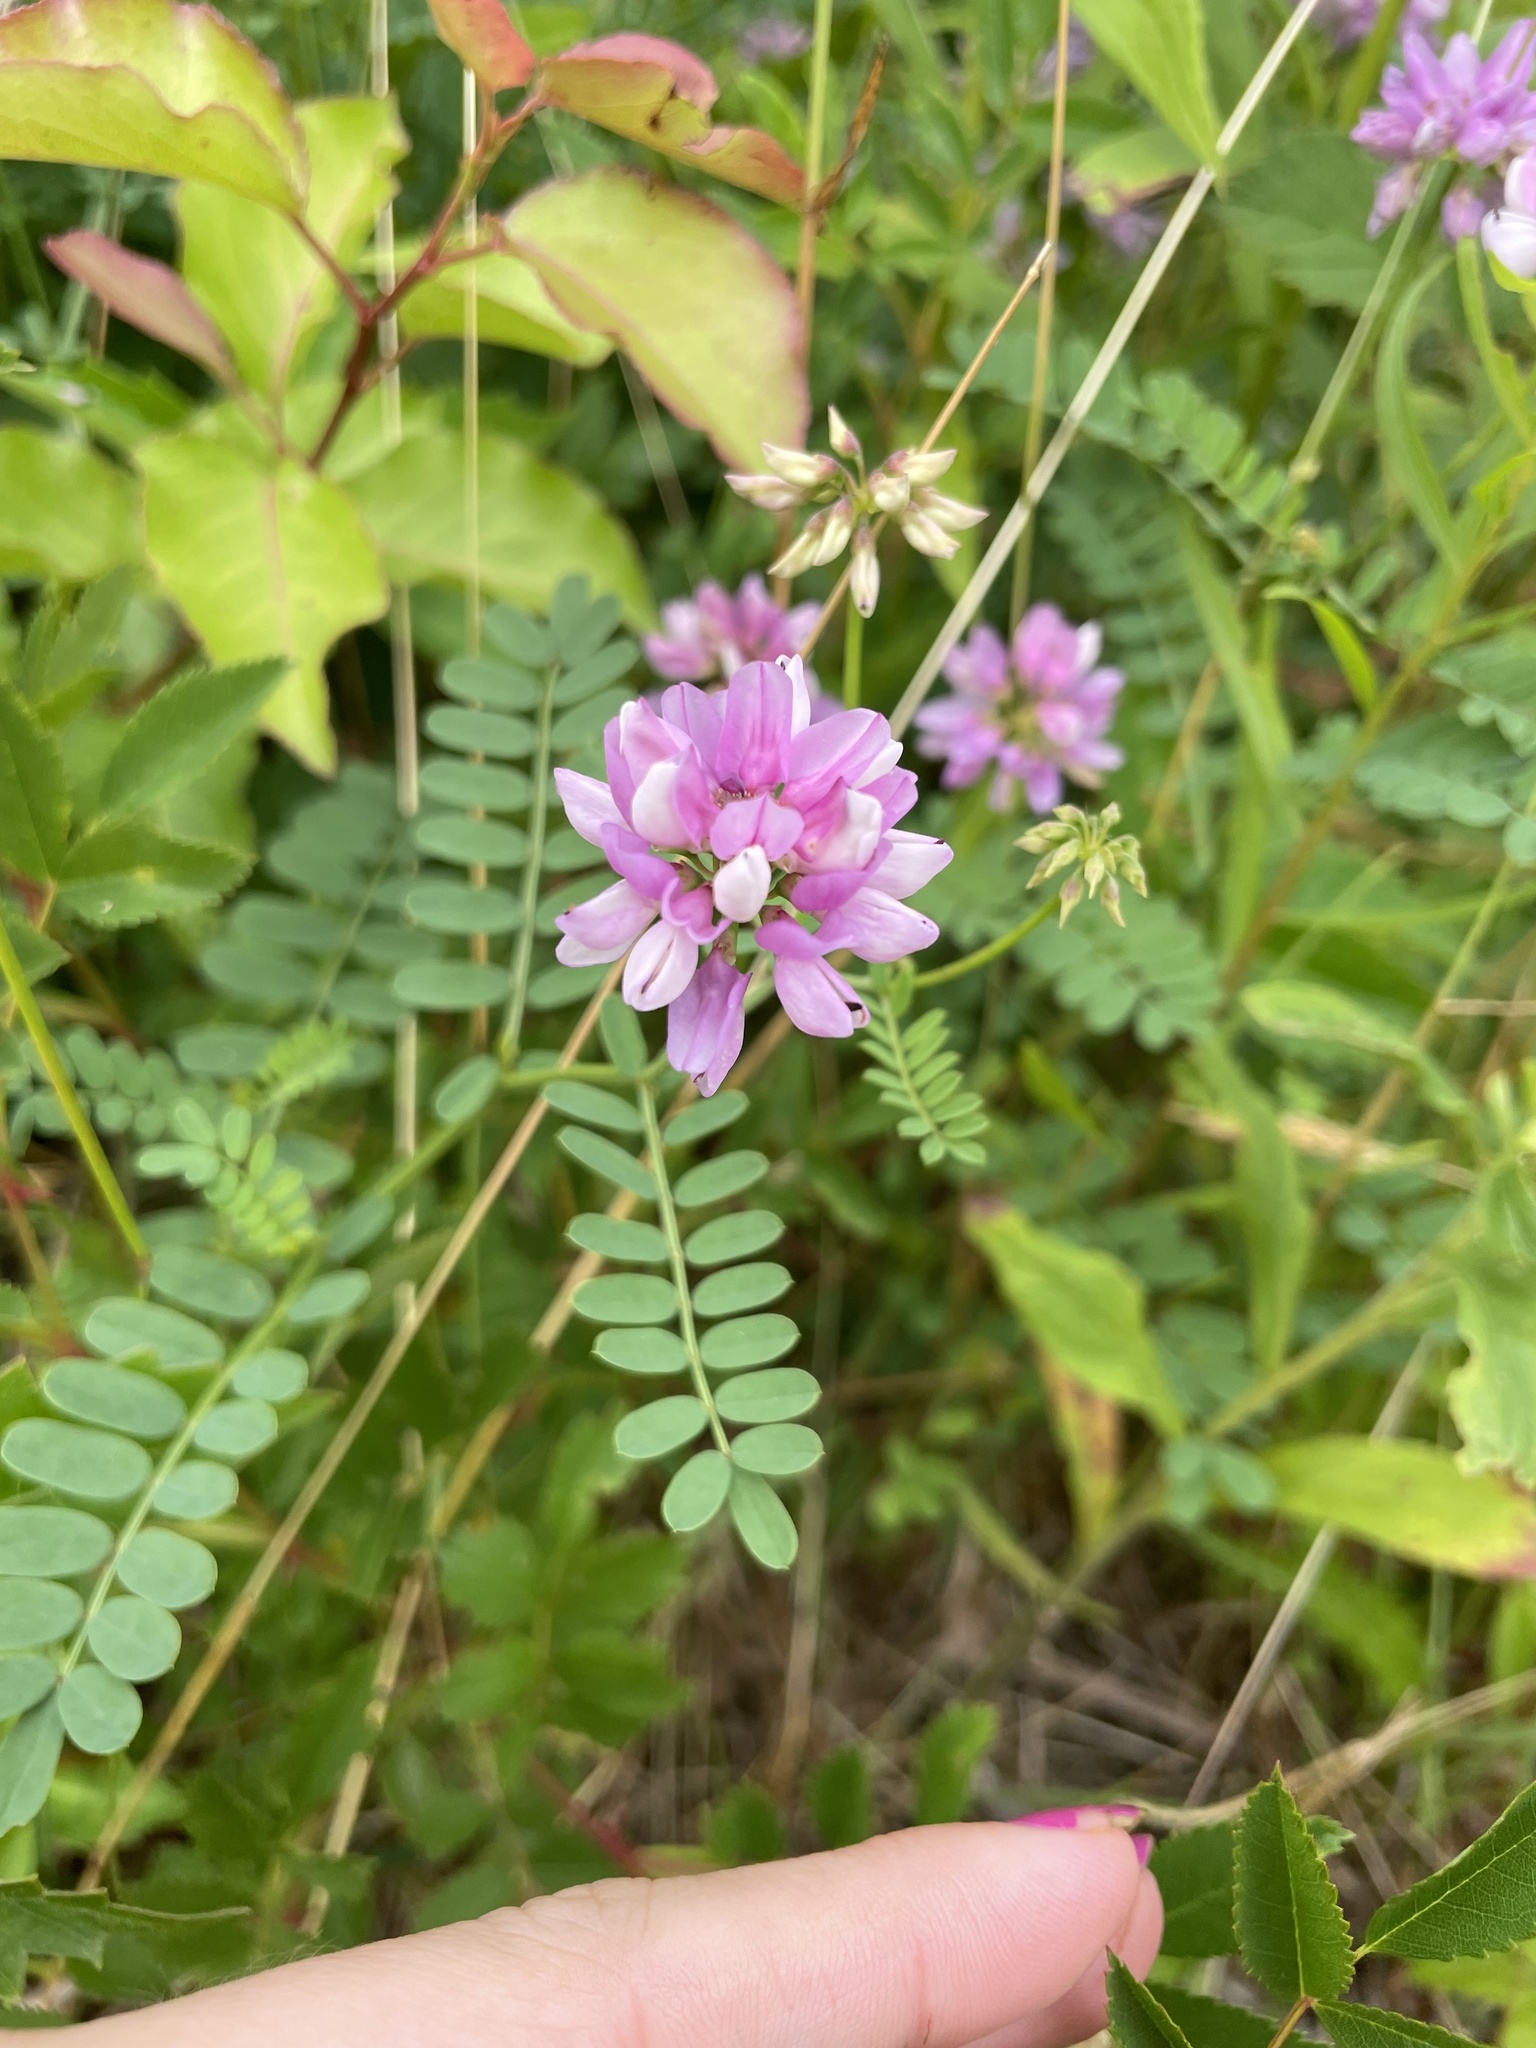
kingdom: Plantae
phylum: Tracheophyta
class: Magnoliopsida
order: Fabales
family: Fabaceae
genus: Coronilla
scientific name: Coronilla varia
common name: Crownvetch
